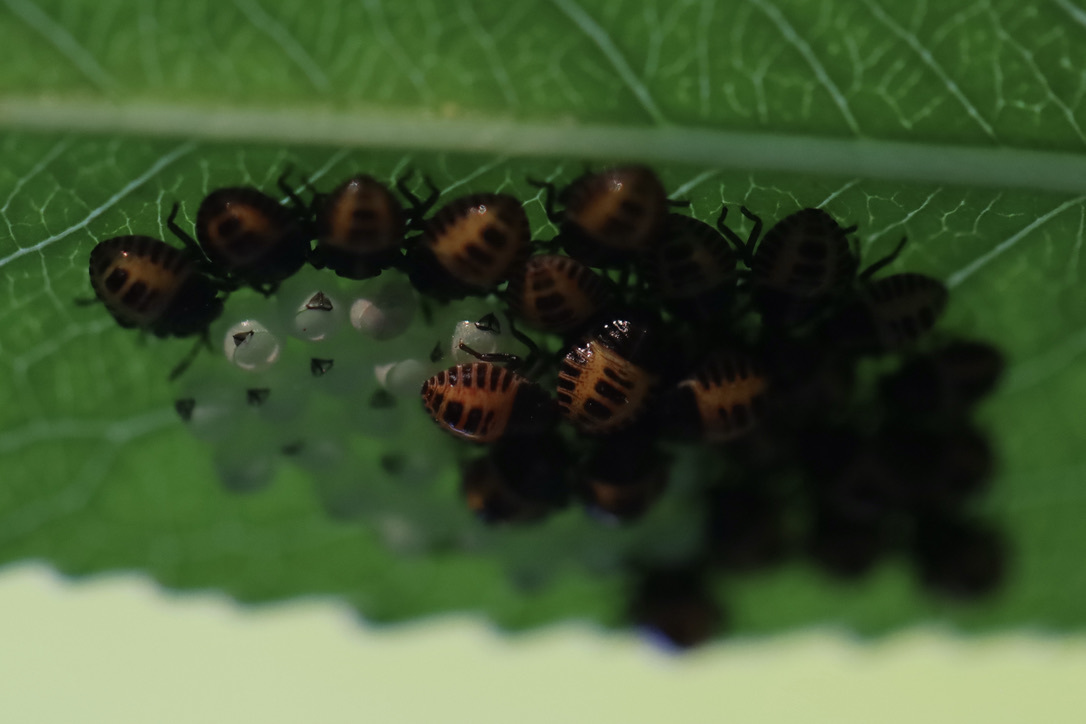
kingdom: Animalia
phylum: Arthropoda
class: Insecta
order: Hemiptera
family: Pentatomidae
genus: Halyomorpha
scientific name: Halyomorpha halys
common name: Brown marmorated stink bug
